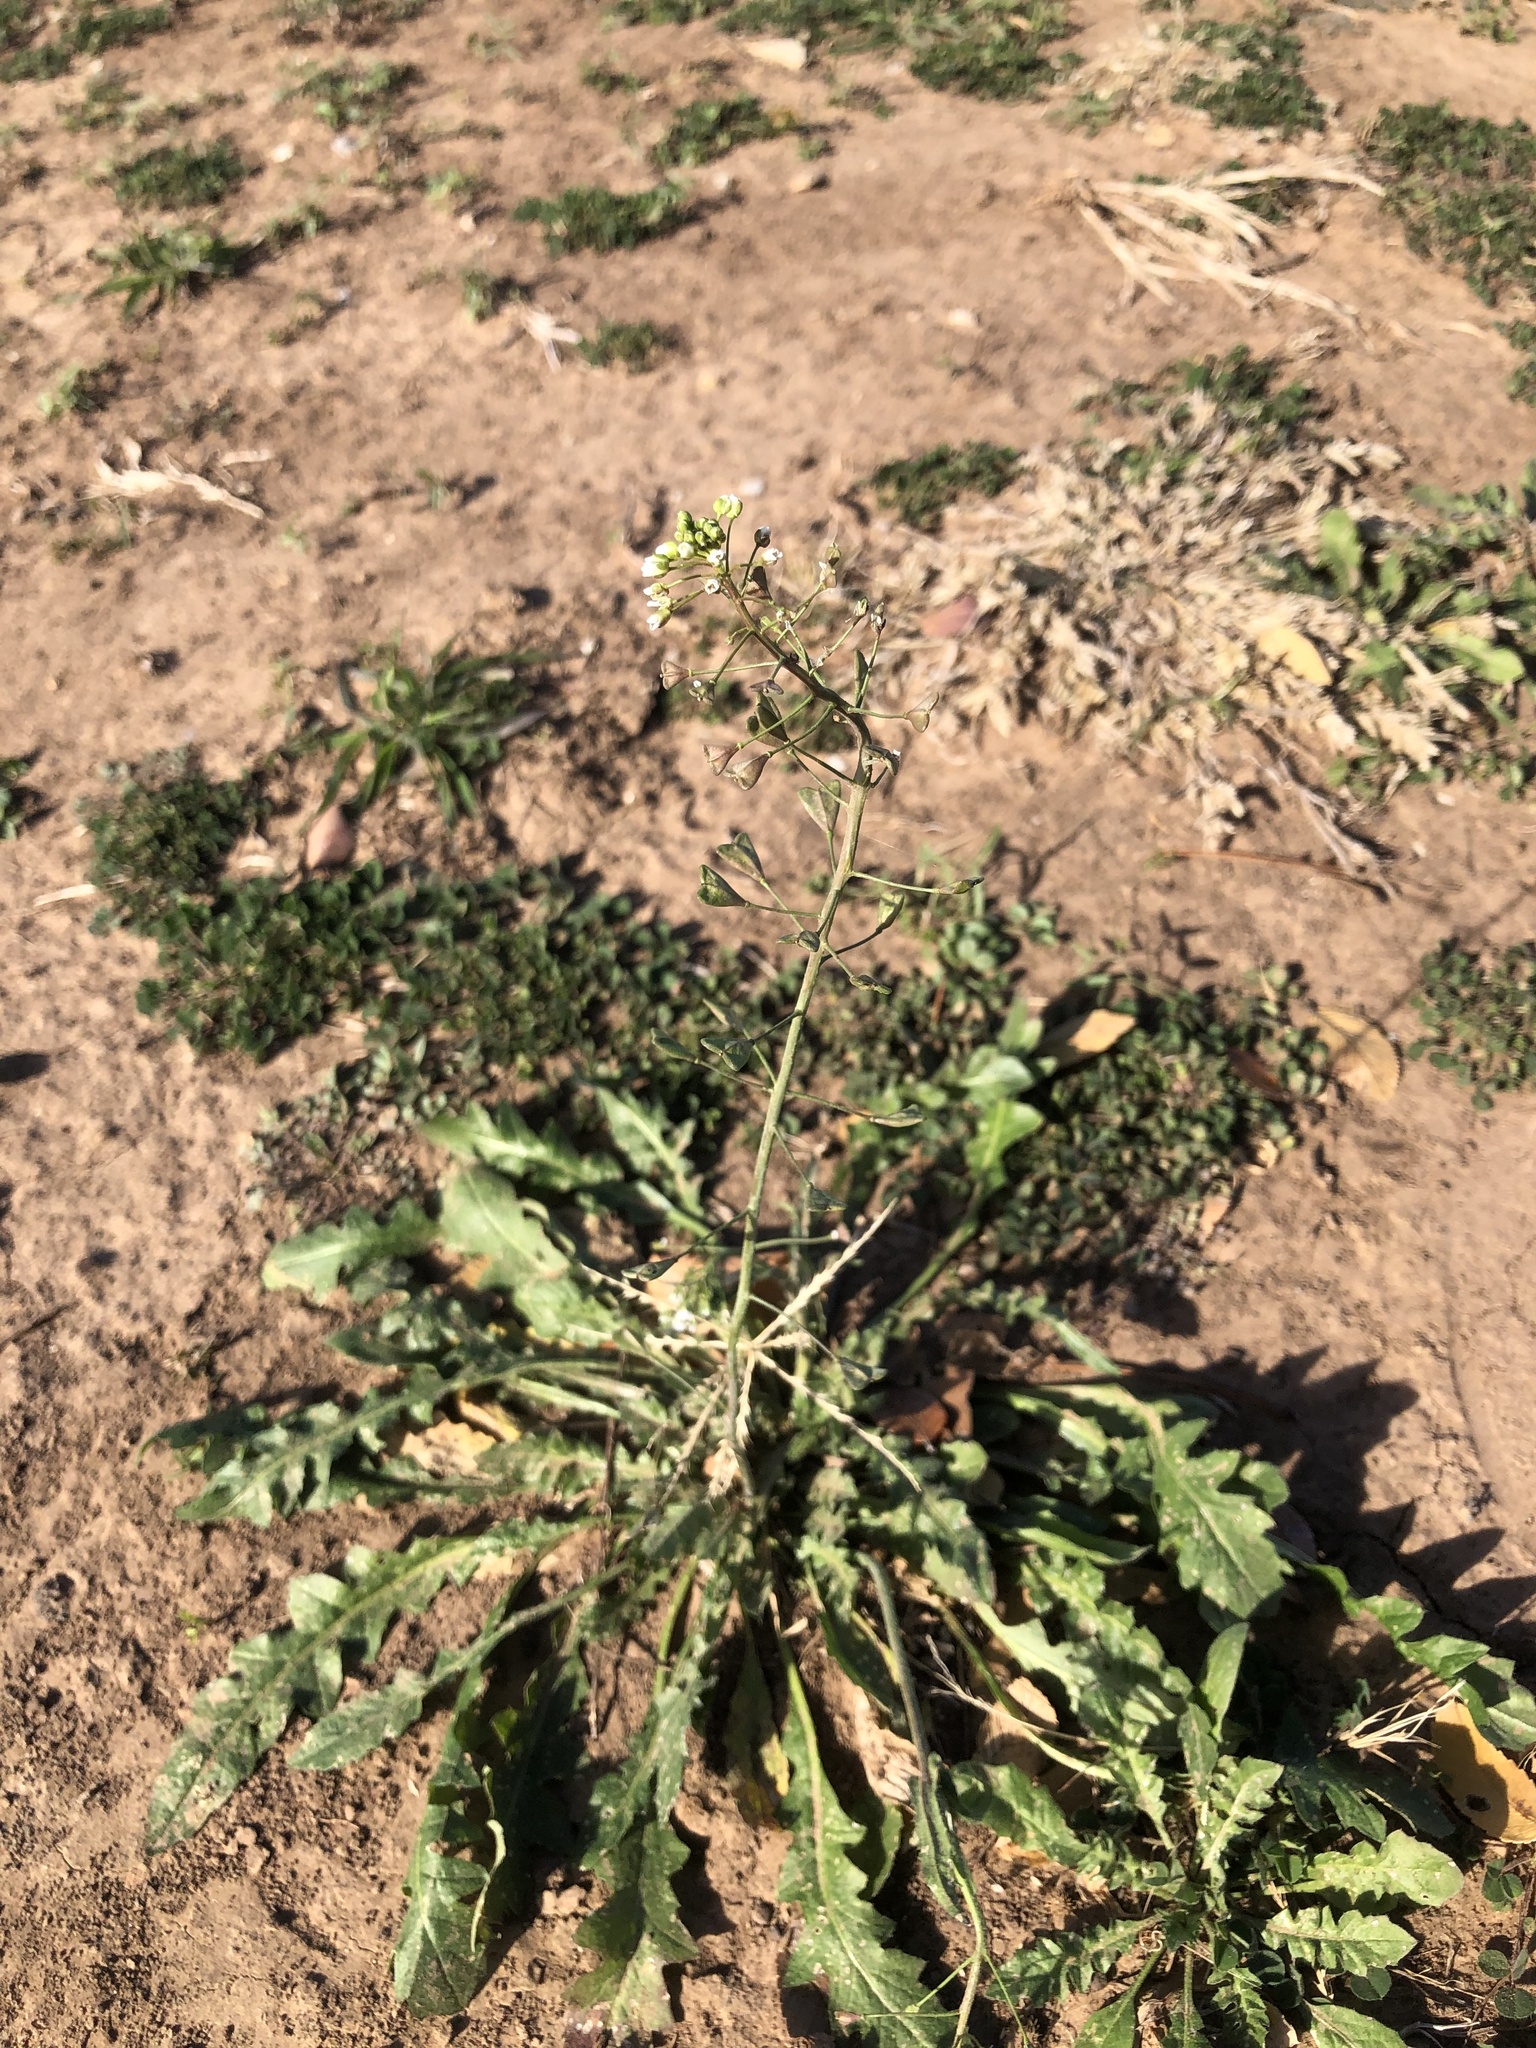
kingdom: Plantae
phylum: Tracheophyta
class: Magnoliopsida
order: Brassicales
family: Brassicaceae
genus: Capsella
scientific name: Capsella bursa-pastoris
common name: Shepherd's purse
